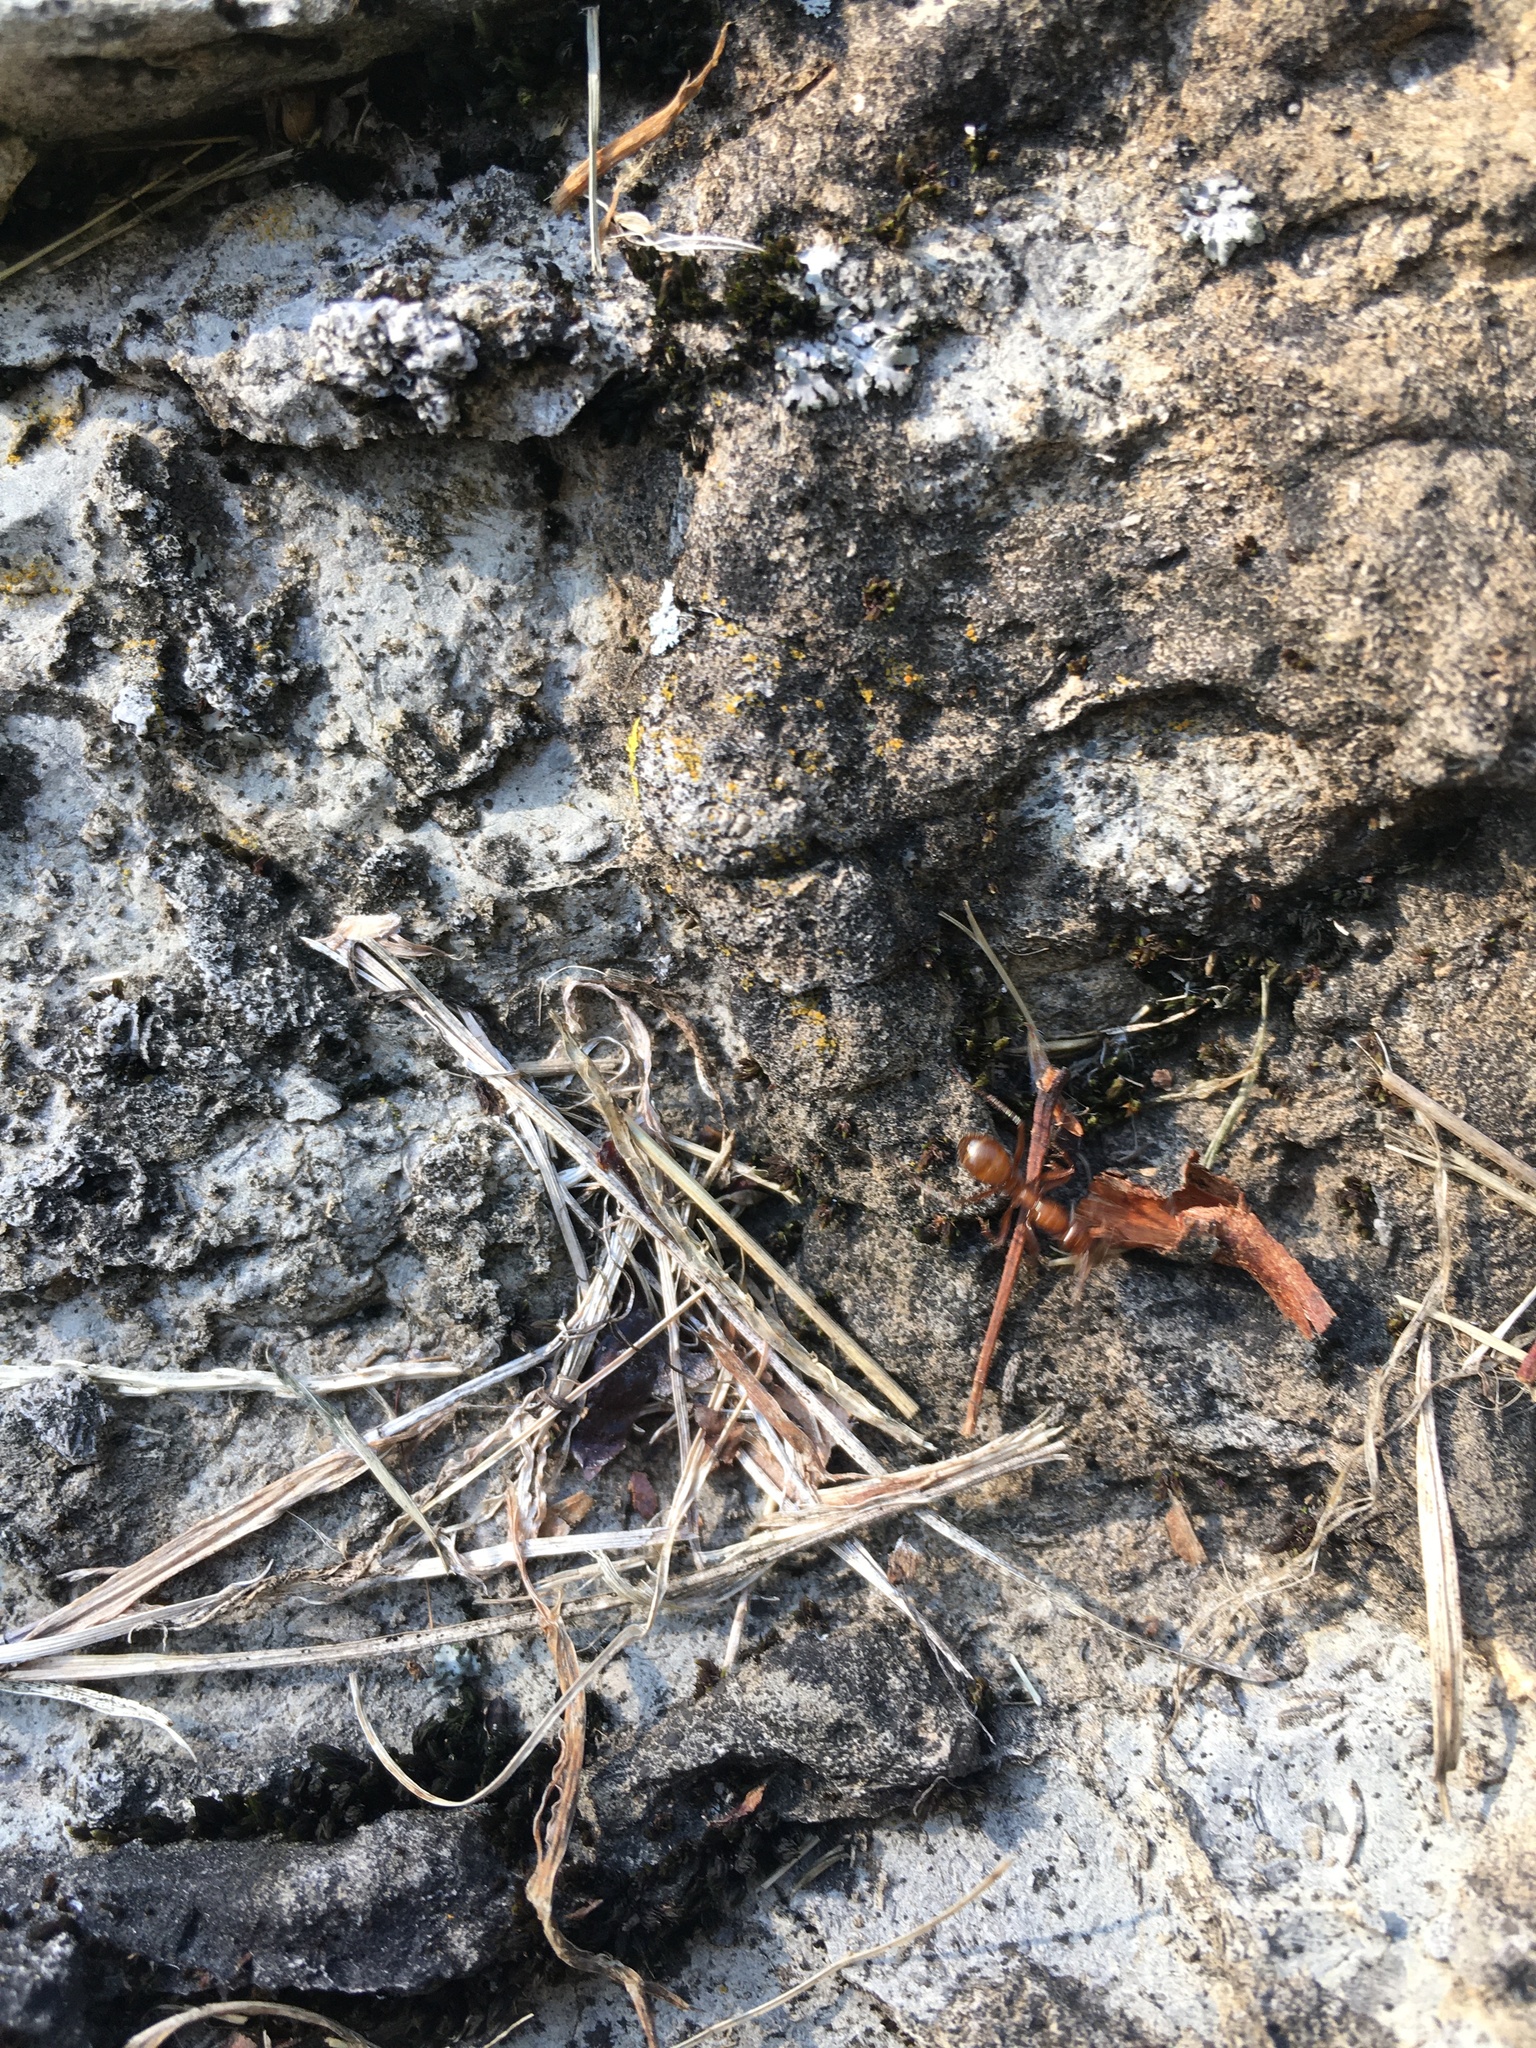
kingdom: Animalia
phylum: Arthropoda
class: Insecta
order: Hymenoptera
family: Formicidae
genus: Formica
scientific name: Formica
